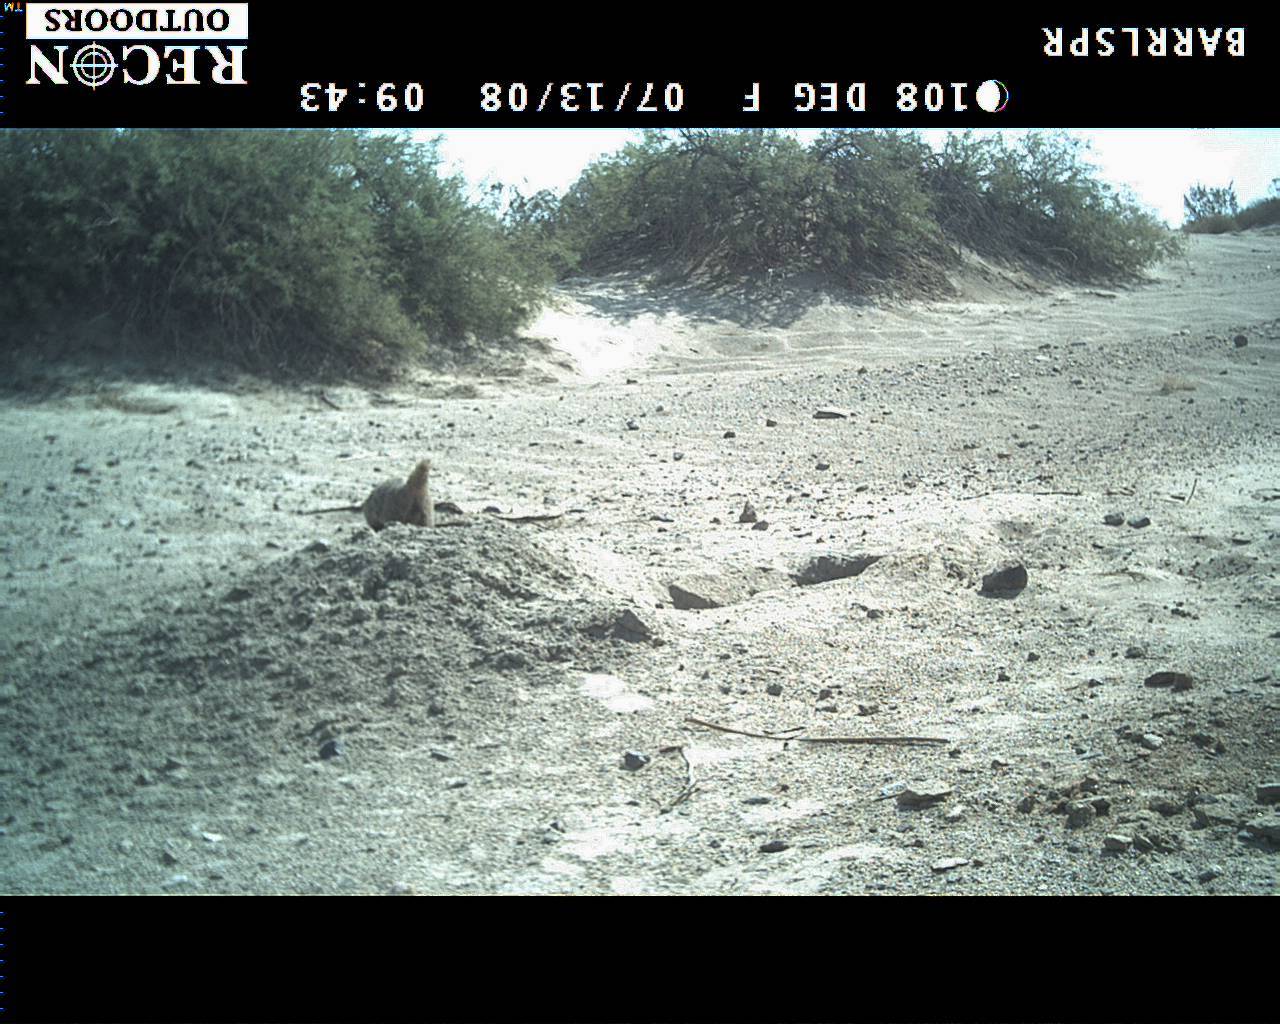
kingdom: Animalia
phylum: Chordata
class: Mammalia
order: Carnivora
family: Mustelidae
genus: Taxidea
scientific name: Taxidea taxus
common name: American badger
